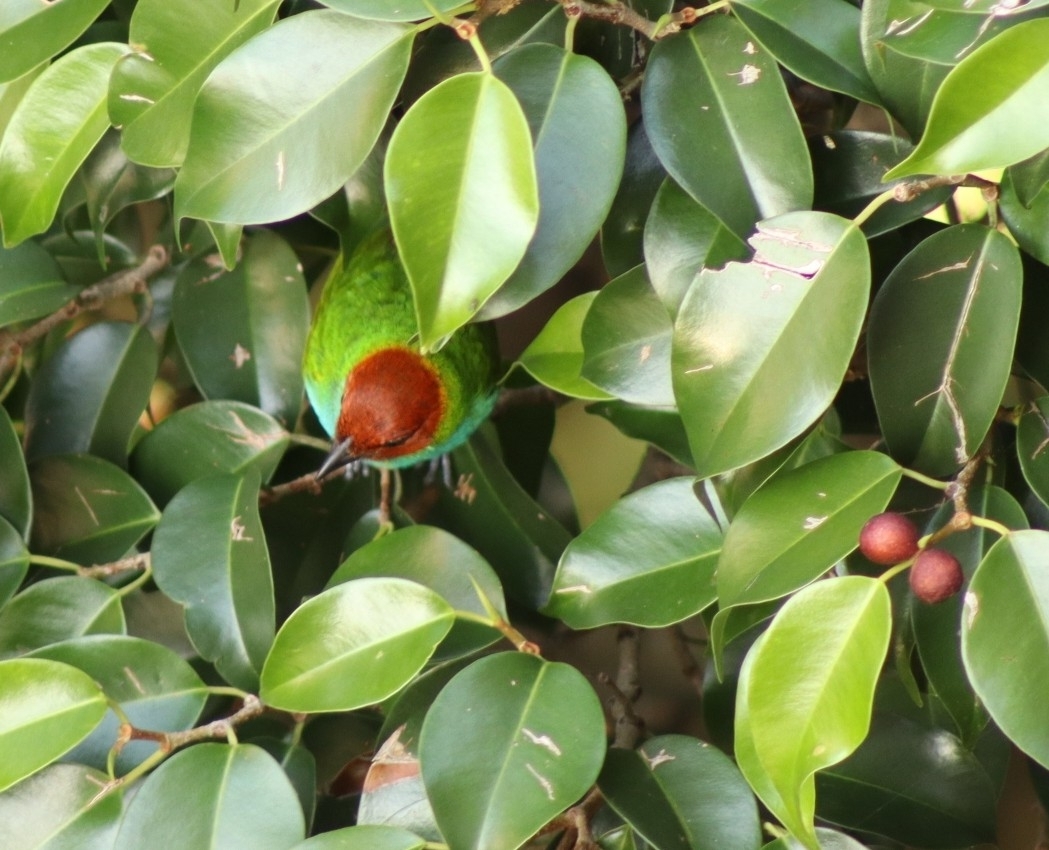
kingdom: Animalia
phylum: Chordata
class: Aves
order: Passeriformes
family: Thraupidae
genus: Tangara
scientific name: Tangara gyrola
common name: Bay-headed tanager
